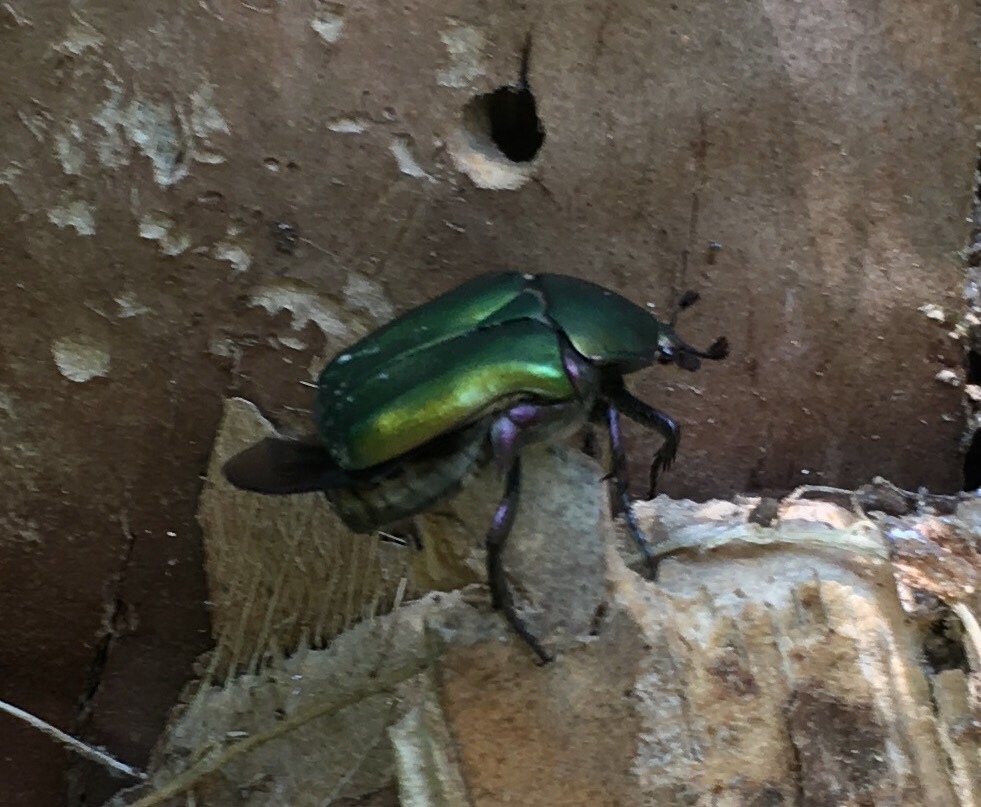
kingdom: Animalia
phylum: Arthropoda
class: Insecta
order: Coleoptera
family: Scarabaeidae
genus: Protaetia
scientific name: Protaetia cuprea
